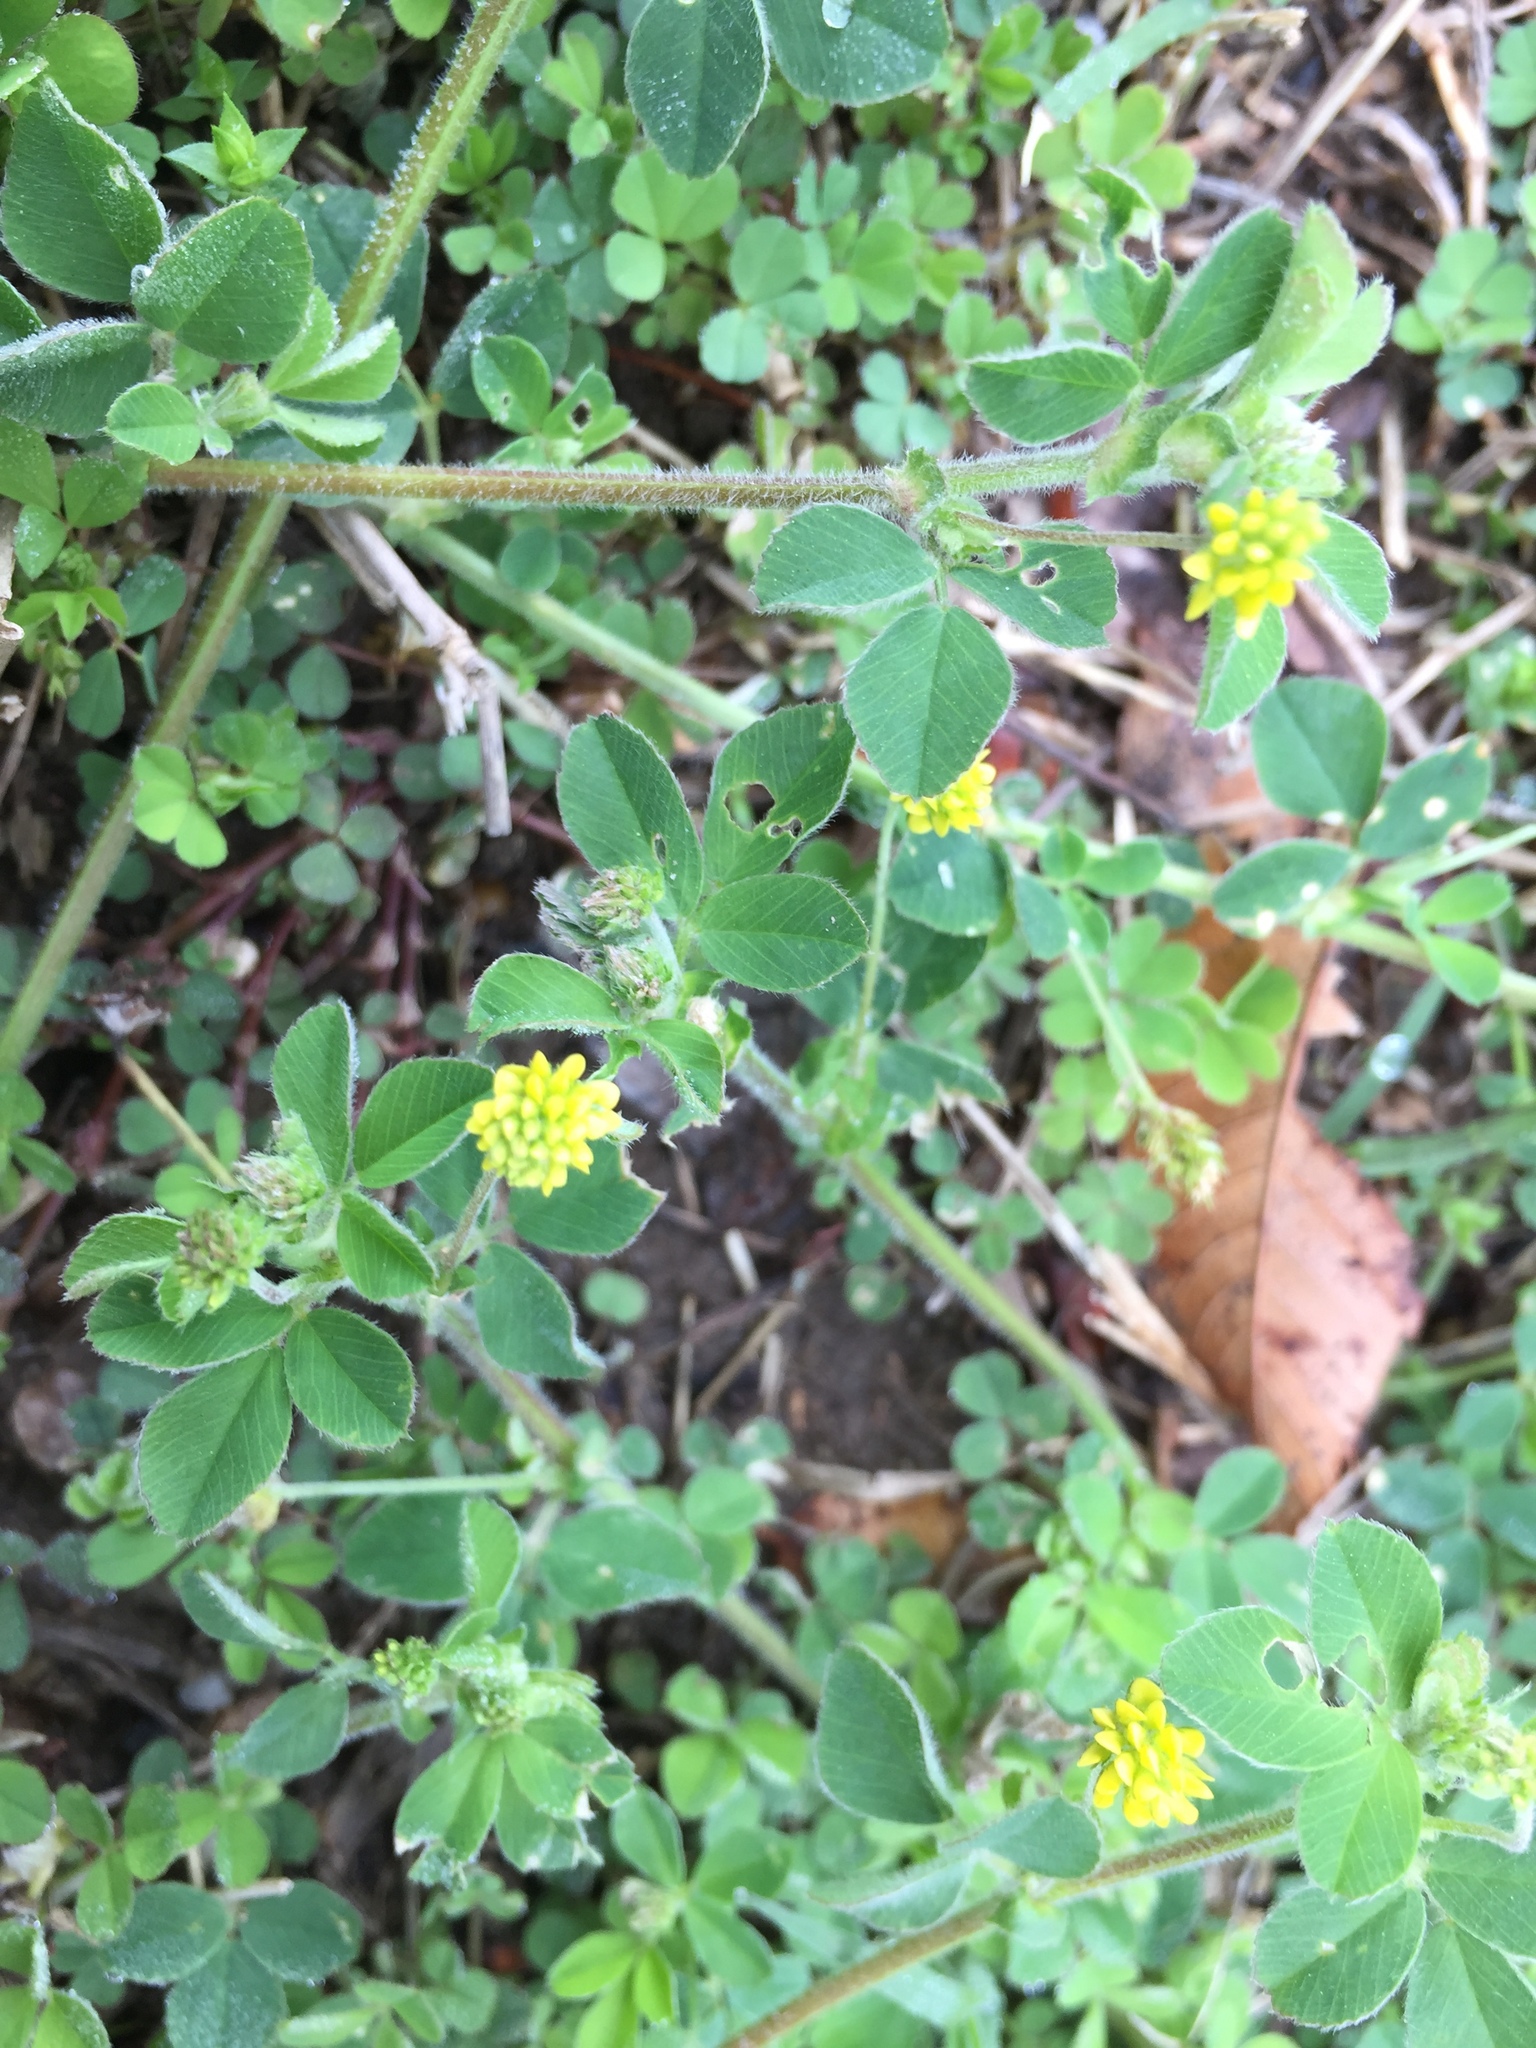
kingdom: Plantae
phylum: Tracheophyta
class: Magnoliopsida
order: Fabales
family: Fabaceae
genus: Medicago
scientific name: Medicago lupulina
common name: Black medick
